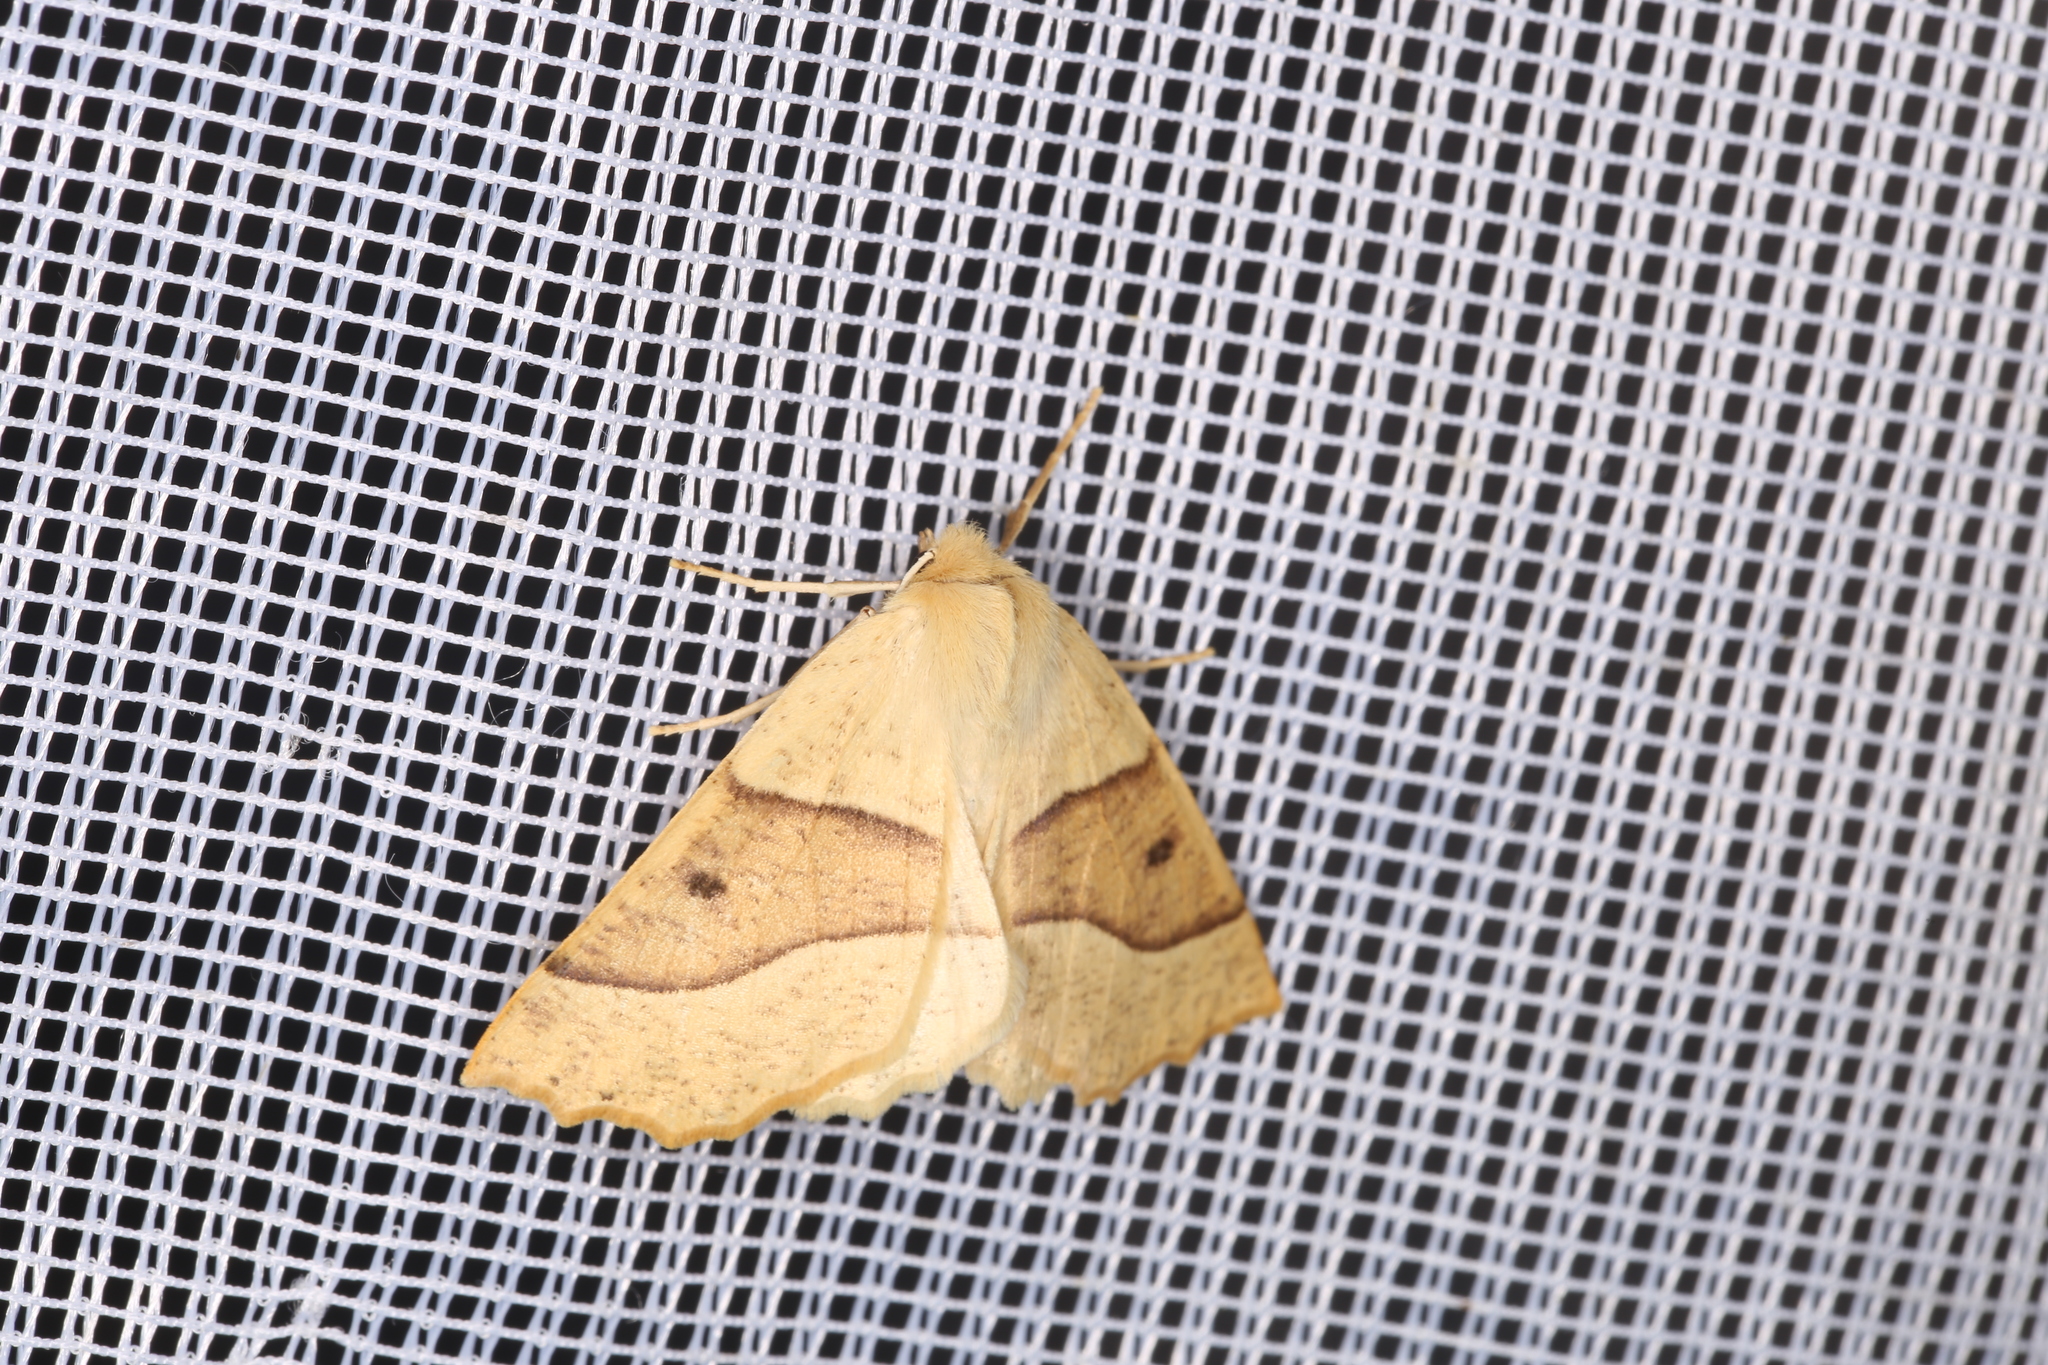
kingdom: Animalia
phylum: Arthropoda
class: Insecta
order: Lepidoptera
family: Geometridae
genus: Crocallis
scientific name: Crocallis elinguaria
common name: Scalloped oak
